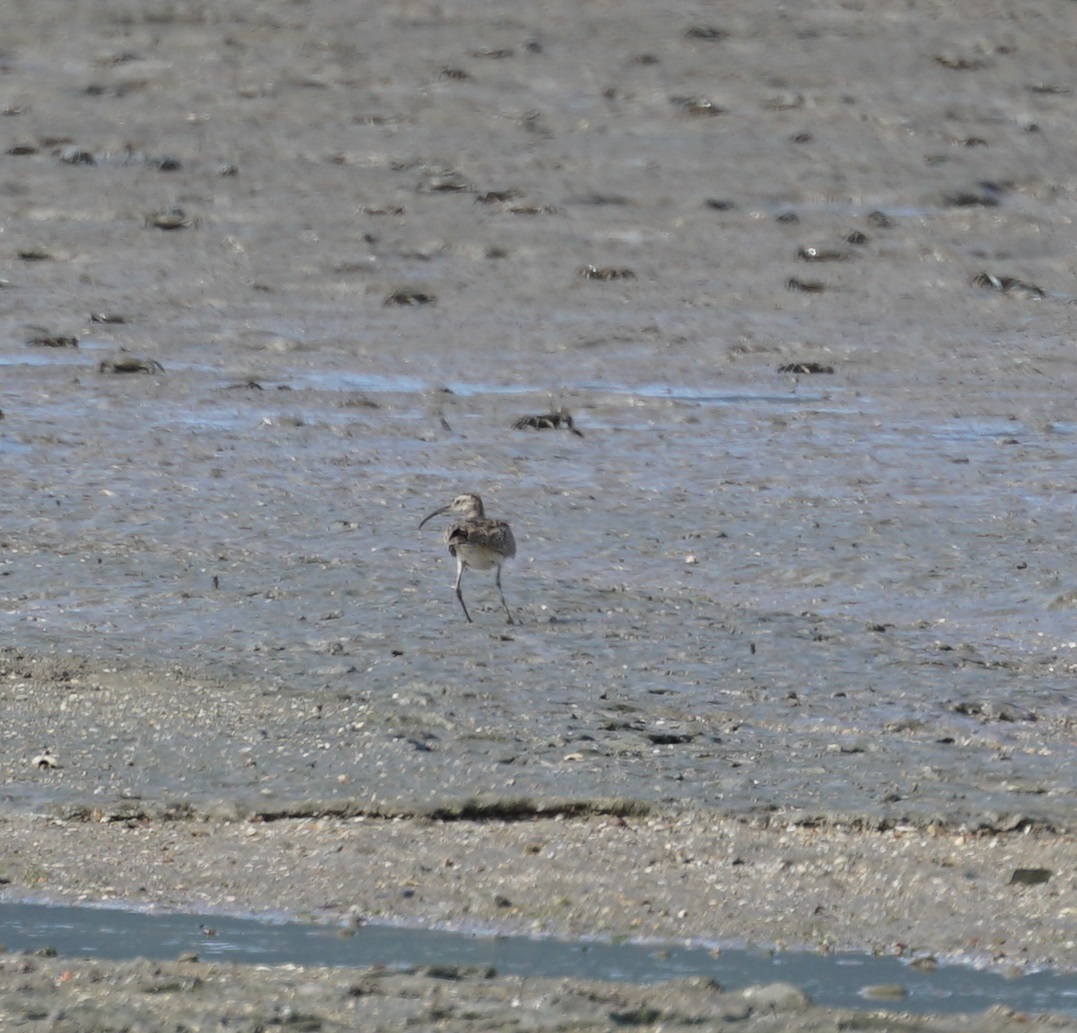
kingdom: Animalia
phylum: Chordata
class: Aves
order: Charadriiformes
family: Scolopacidae
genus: Numenius
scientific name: Numenius phaeopus
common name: Whimbrel
